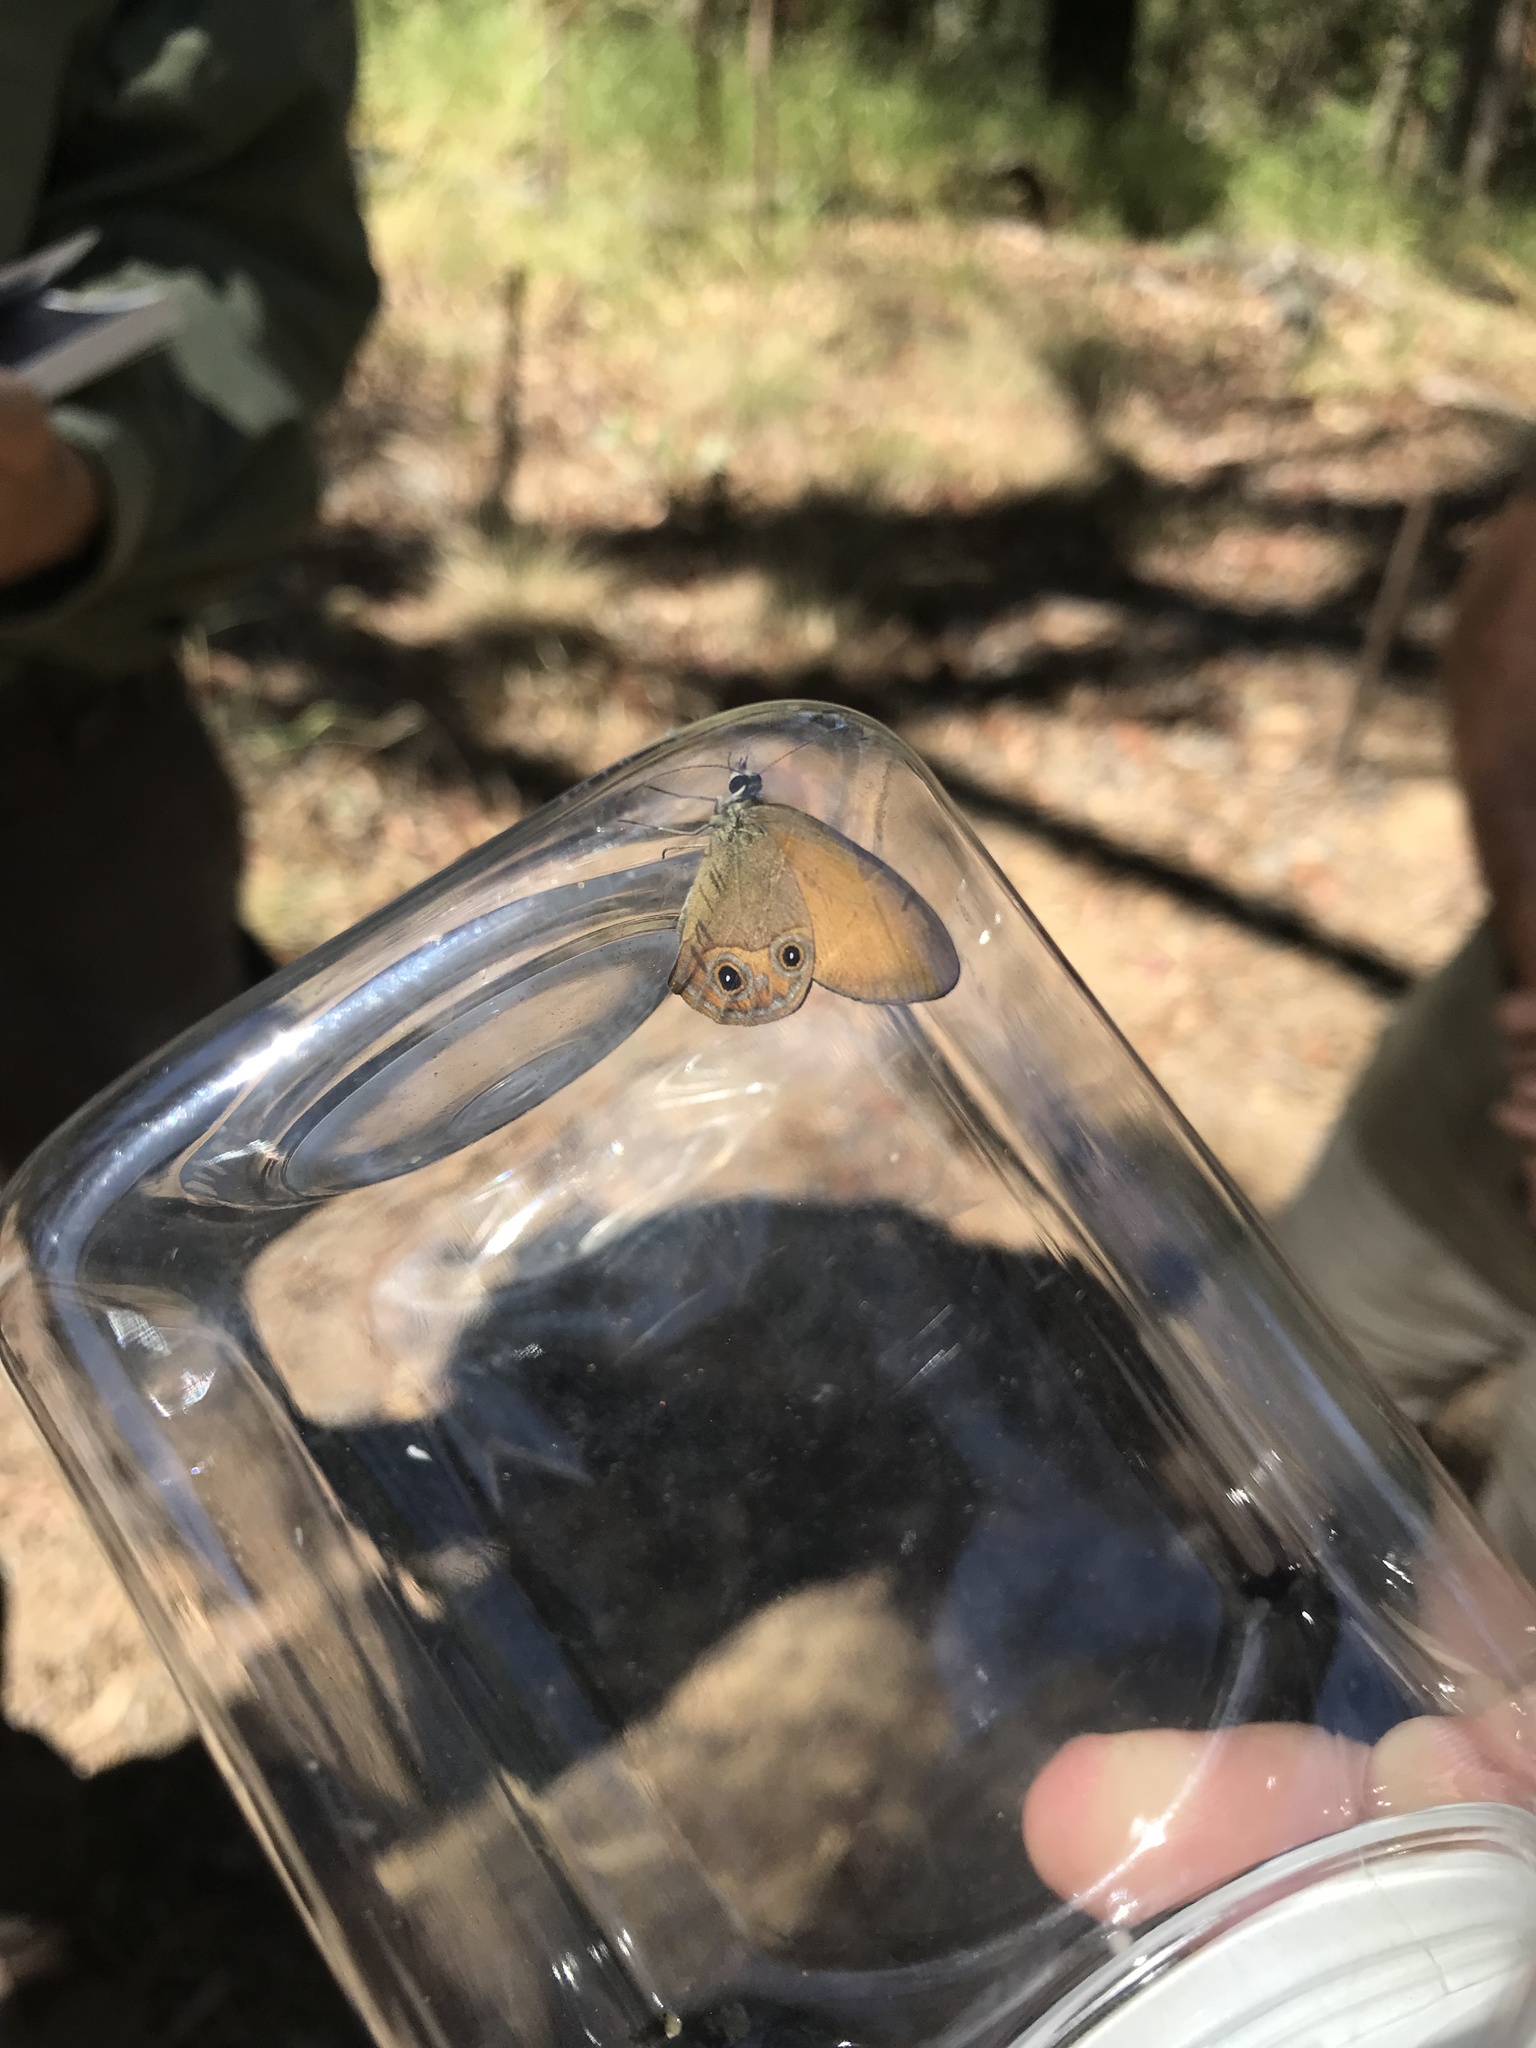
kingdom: Animalia
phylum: Arthropoda
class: Insecta
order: Lepidoptera
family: Nymphalidae
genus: Hypocysta
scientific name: Hypocysta adiante
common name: Orange ringlet
